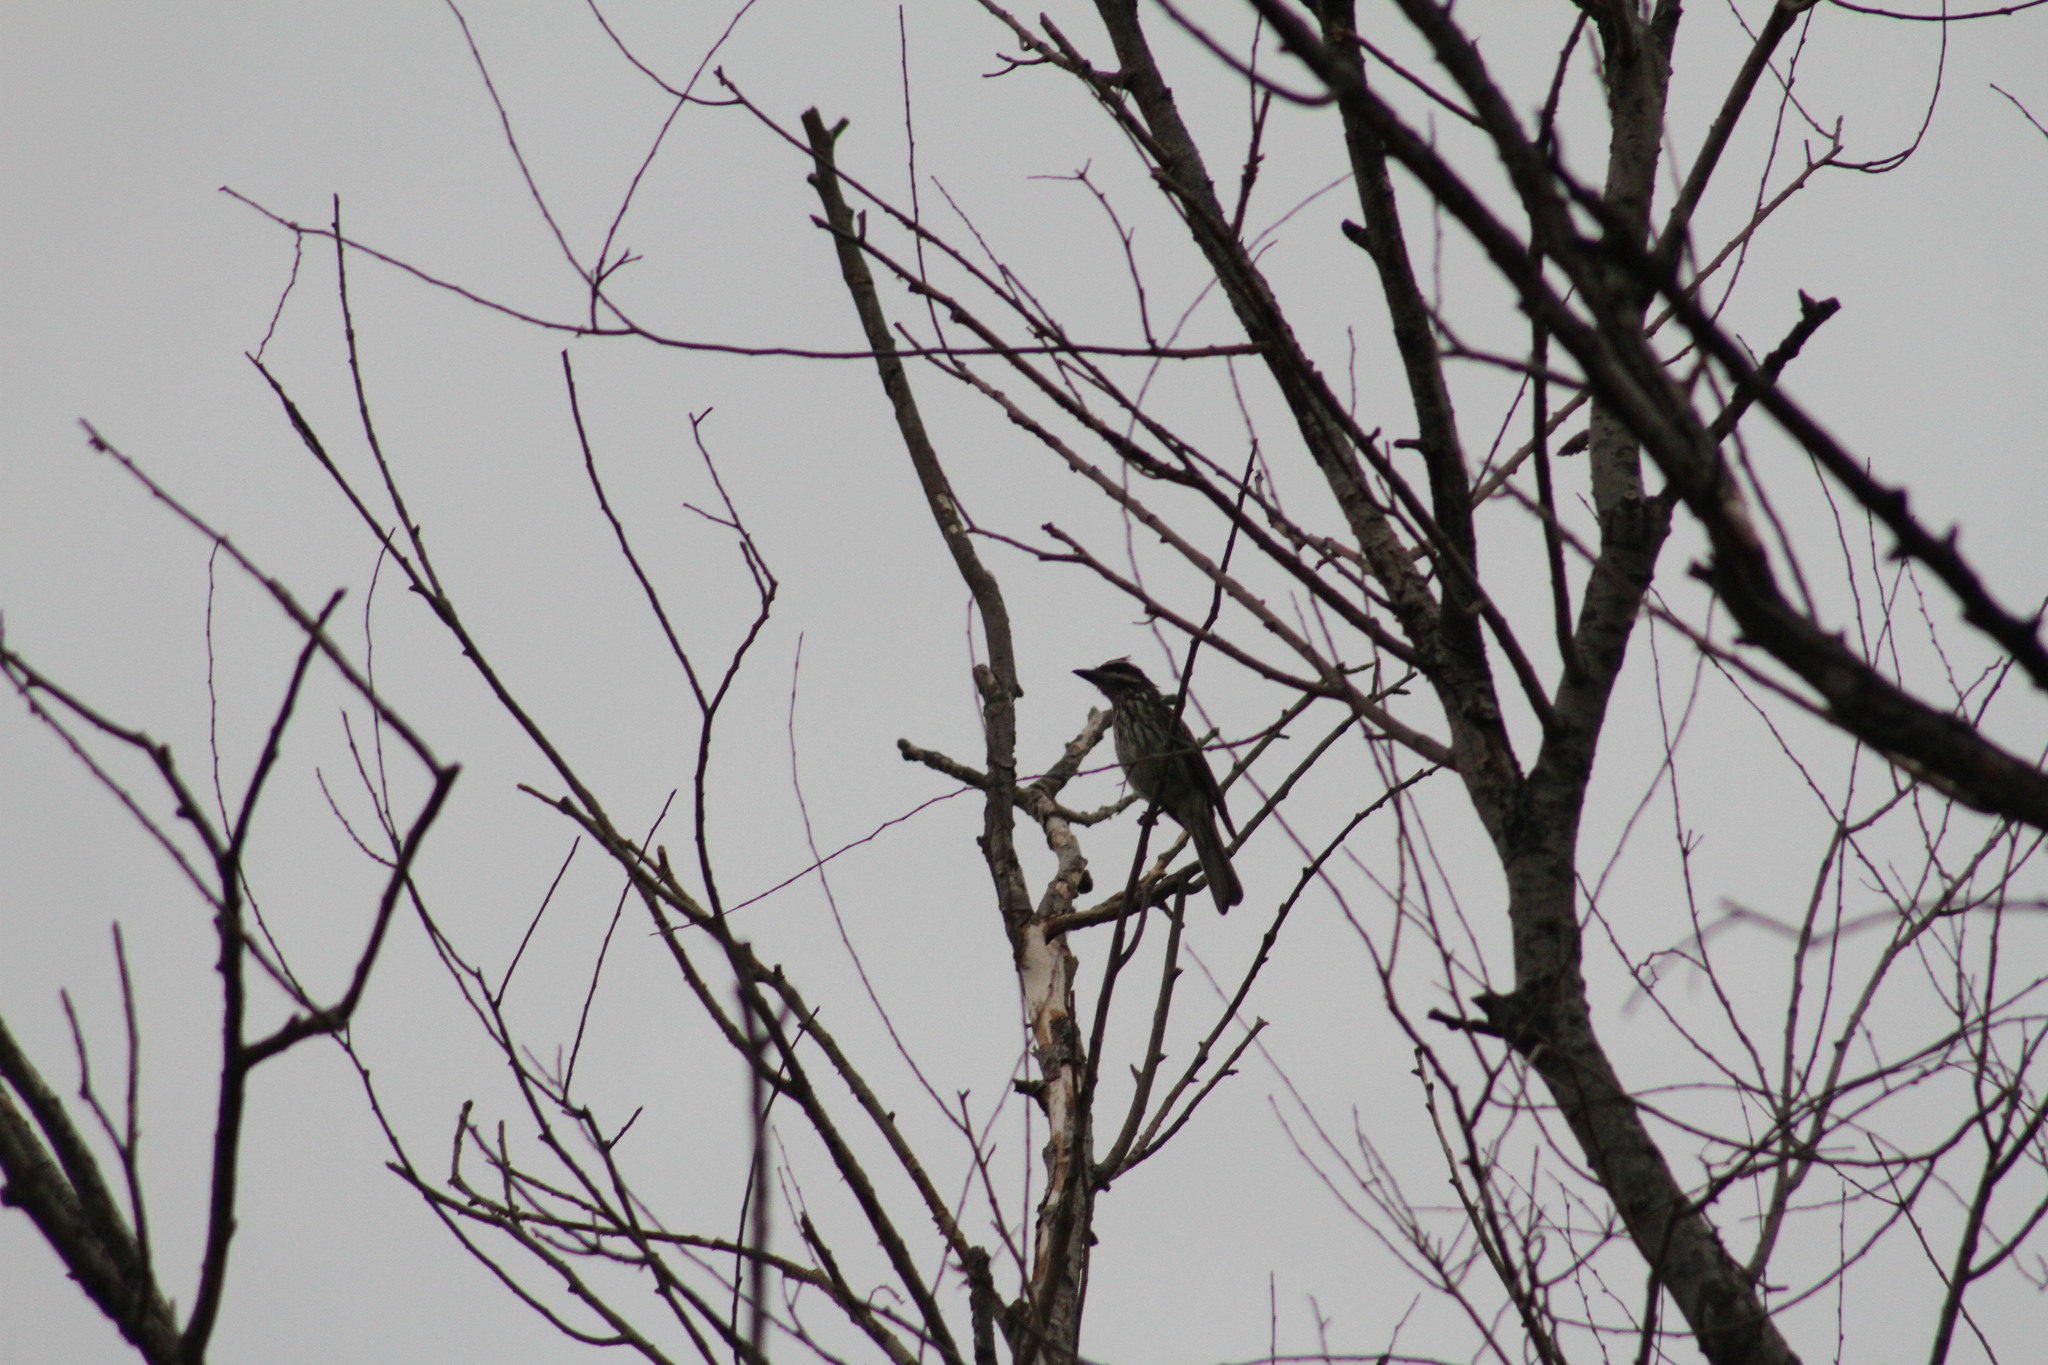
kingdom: Animalia
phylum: Chordata
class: Aves
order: Passeriformes
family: Tyrannidae
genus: Myiodynastes
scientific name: Myiodynastes maculatus
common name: Streaked flycatcher
